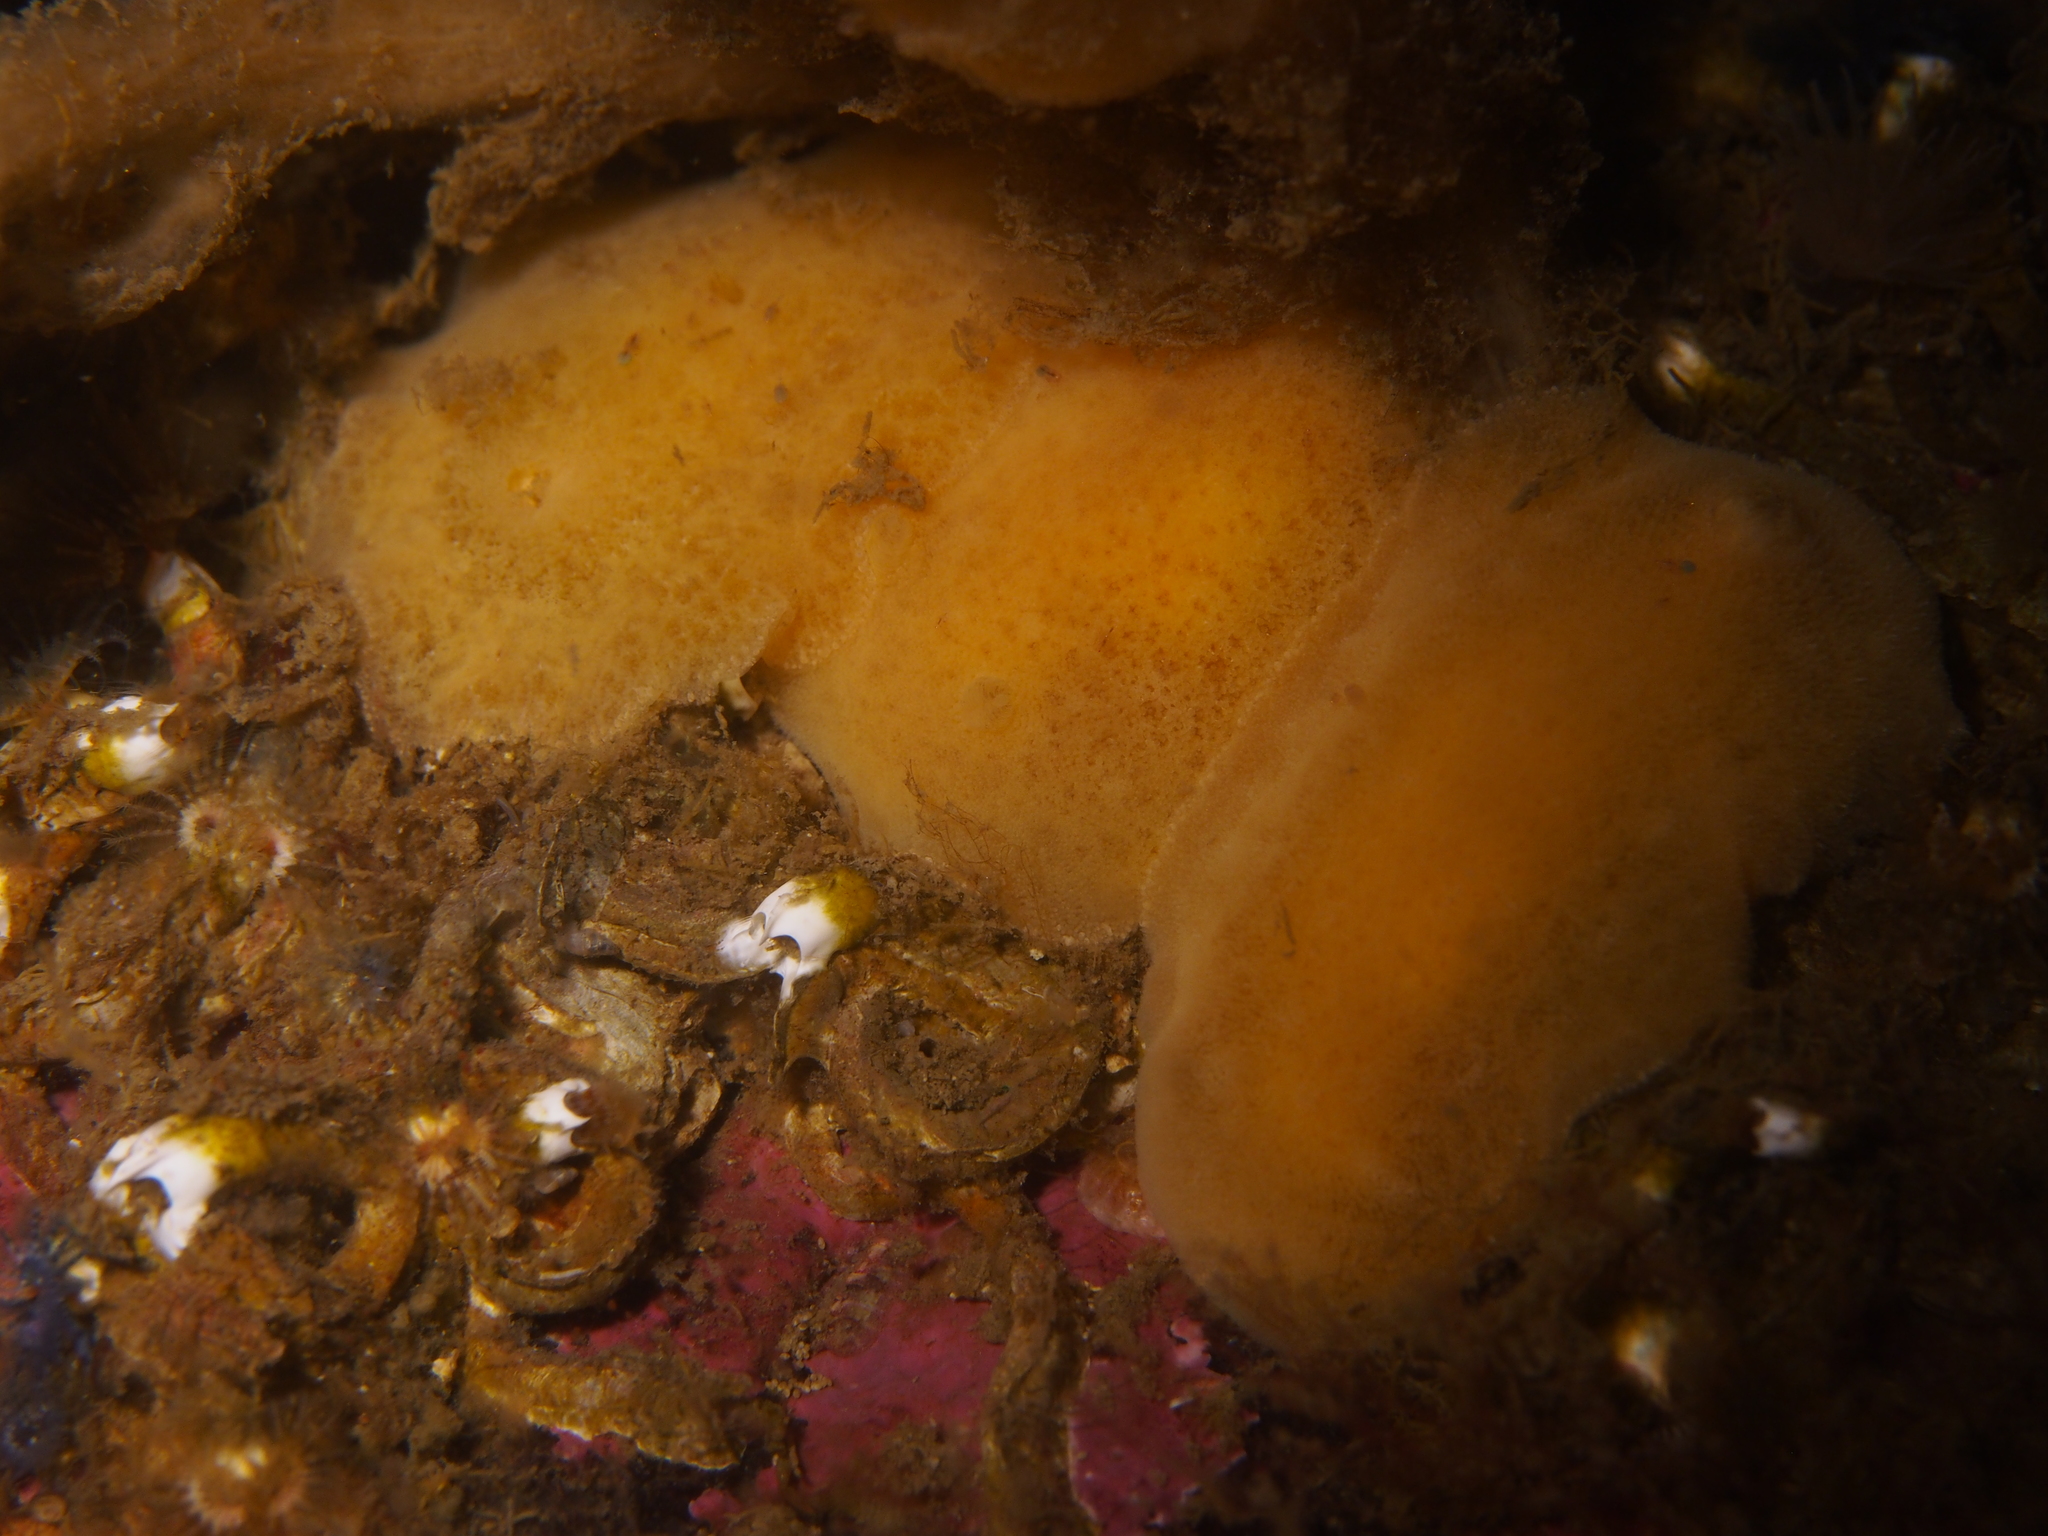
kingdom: Animalia
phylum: Mollusca
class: Gastropoda
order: Nudibranchia
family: Discodorididae
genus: Jorunna
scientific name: Jorunna tomentosa
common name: Grey sea slug
